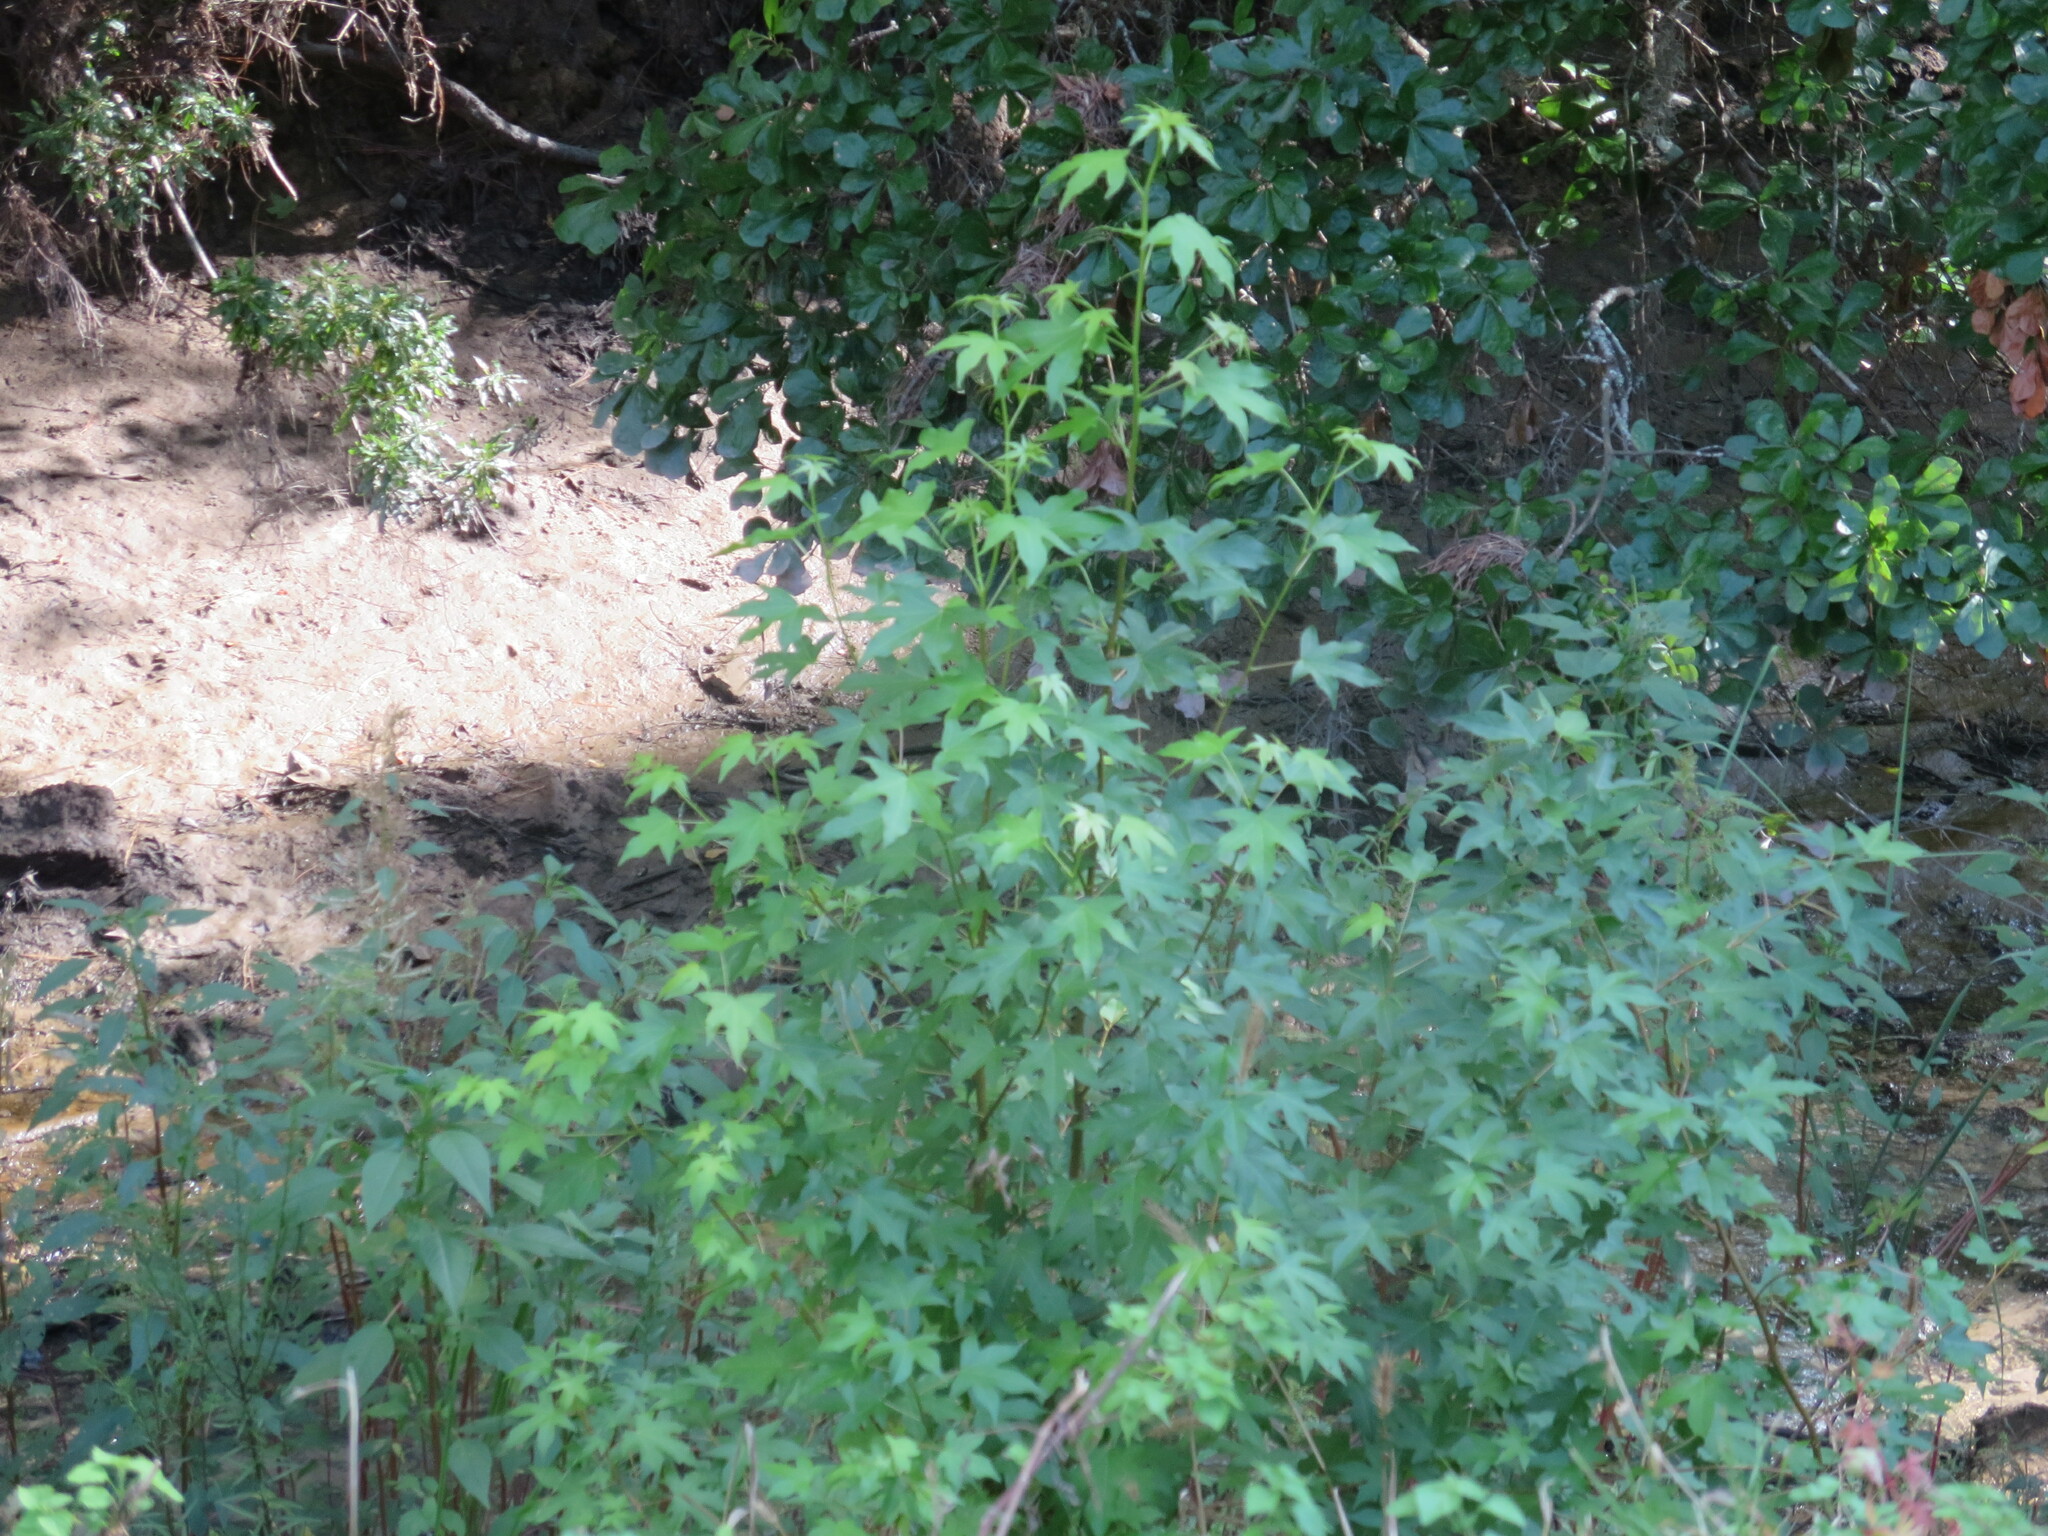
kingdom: Plantae
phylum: Tracheophyta
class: Magnoliopsida
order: Saxifragales
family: Altingiaceae
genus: Liquidambar
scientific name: Liquidambar styraciflua
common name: Sweet gum
